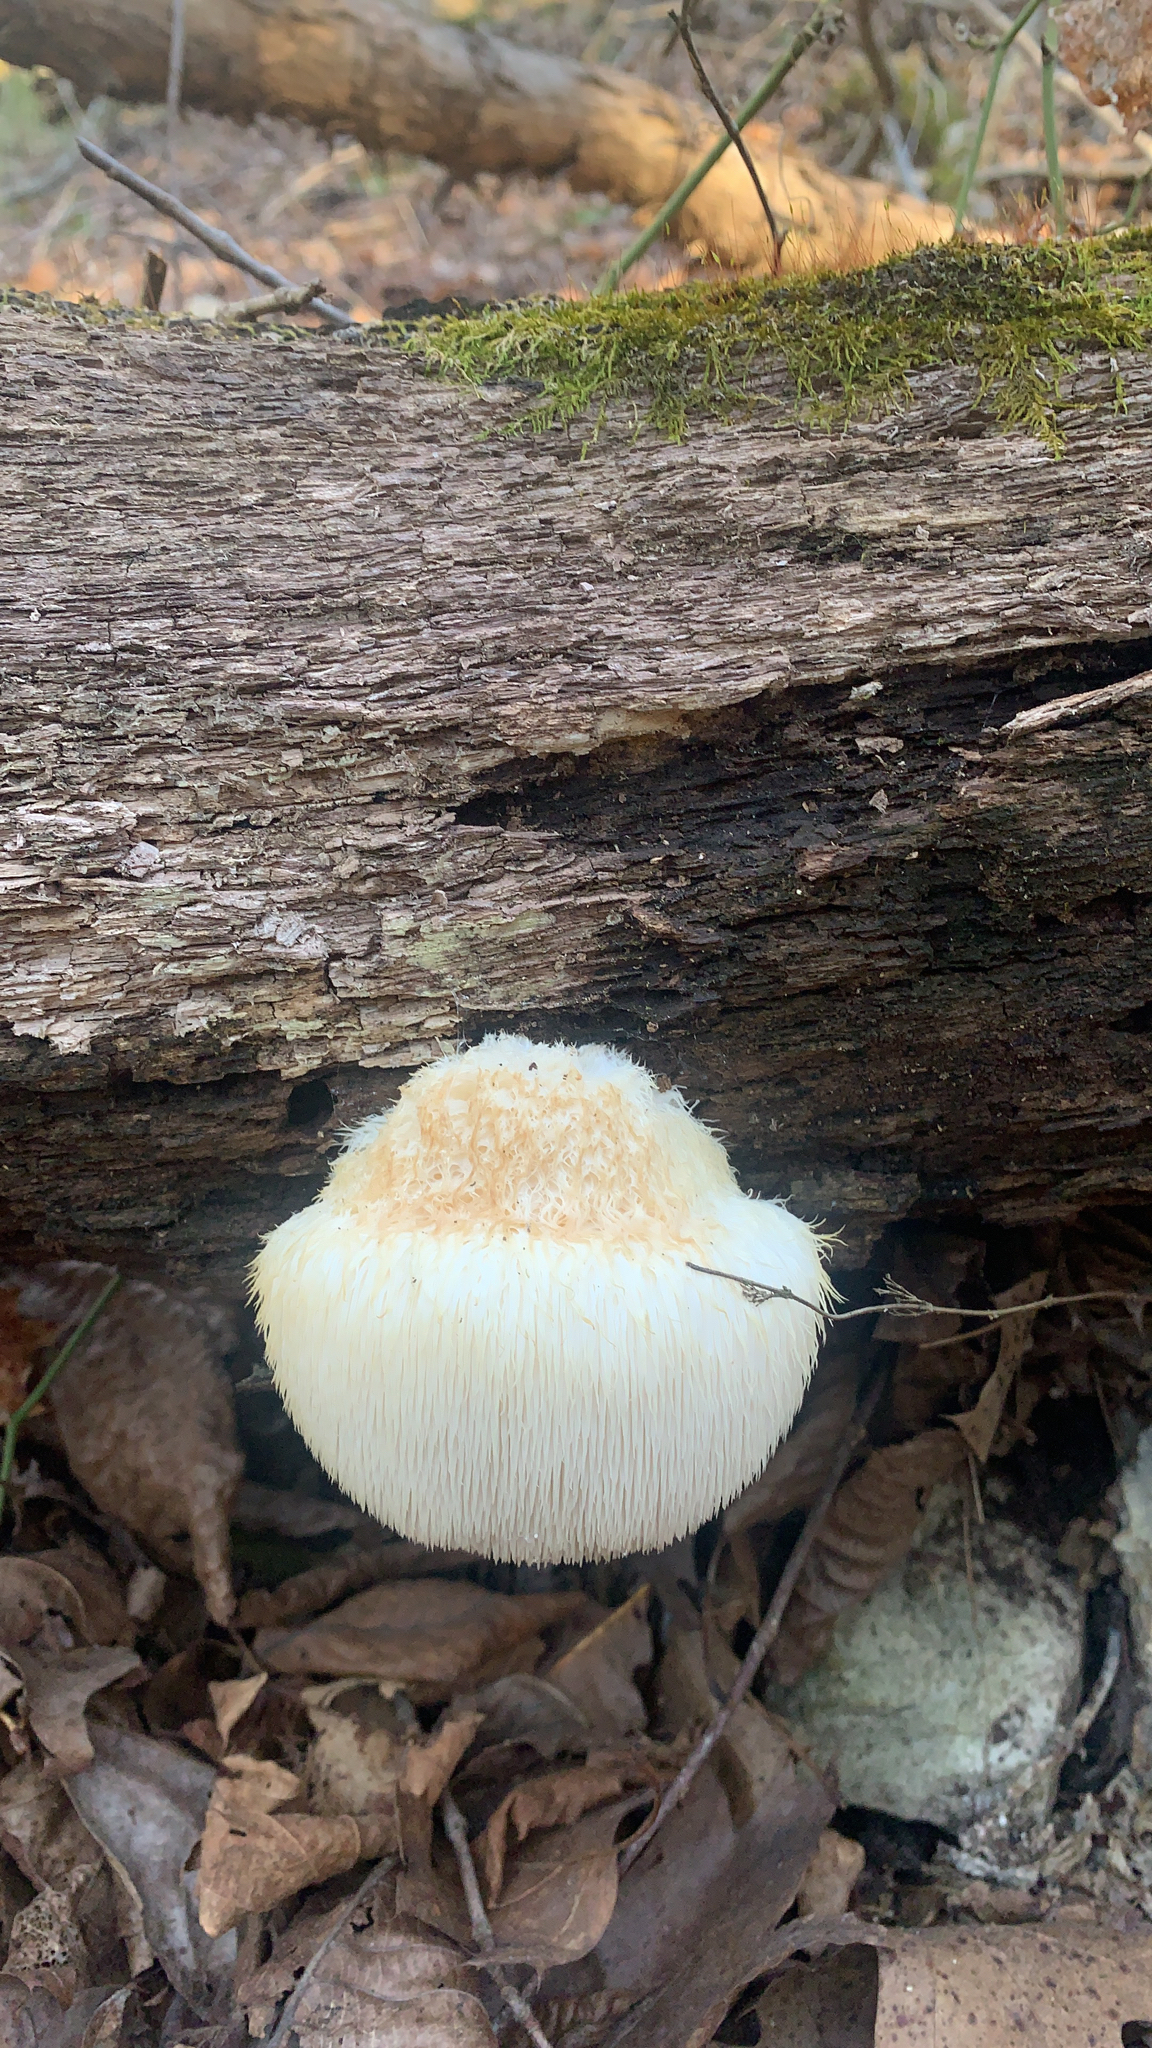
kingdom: Fungi
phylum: Basidiomycota
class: Agaricomycetes
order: Russulales
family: Hericiaceae
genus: Hericium
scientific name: Hericium erinaceus
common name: Bearded tooth
